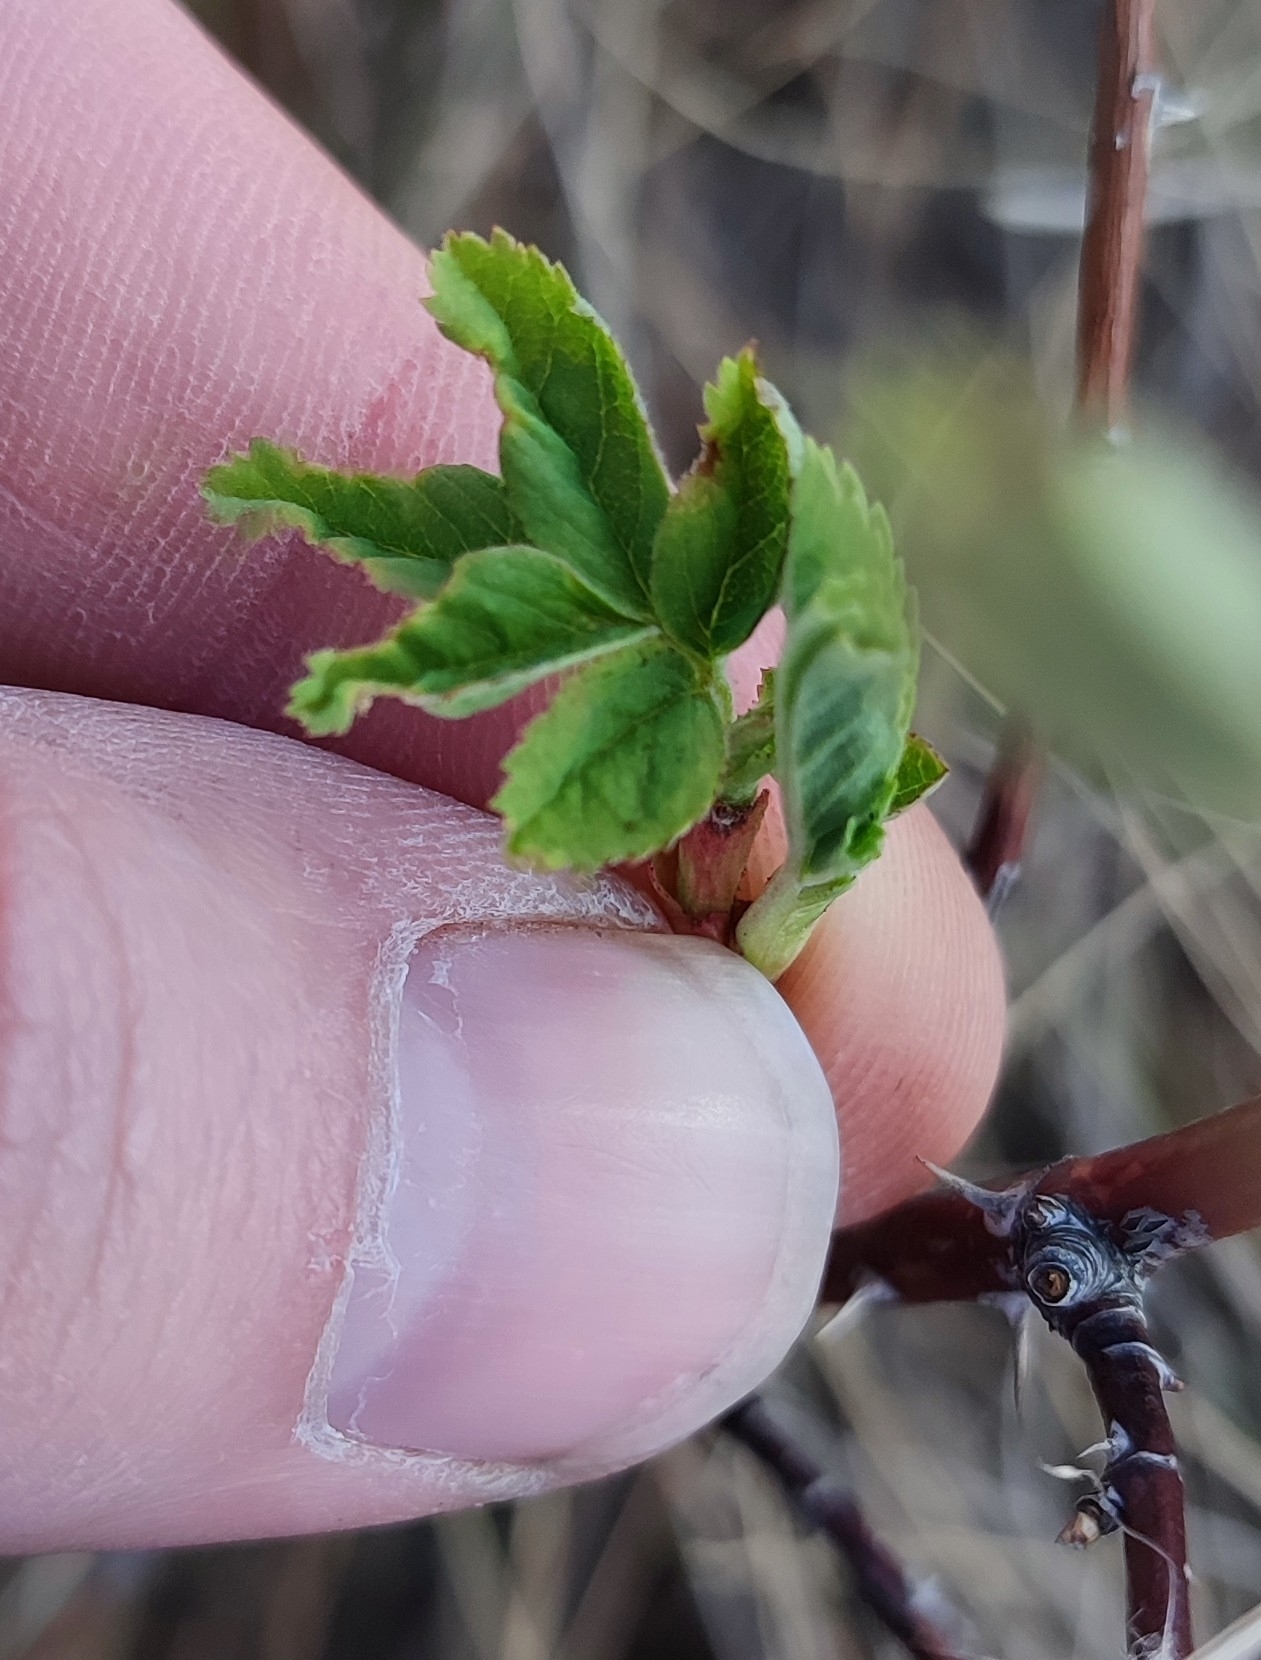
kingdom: Plantae
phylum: Tracheophyta
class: Magnoliopsida
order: Rosales
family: Rosaceae
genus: Rosa
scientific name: Rosa majalis
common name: Cinnamon rose
